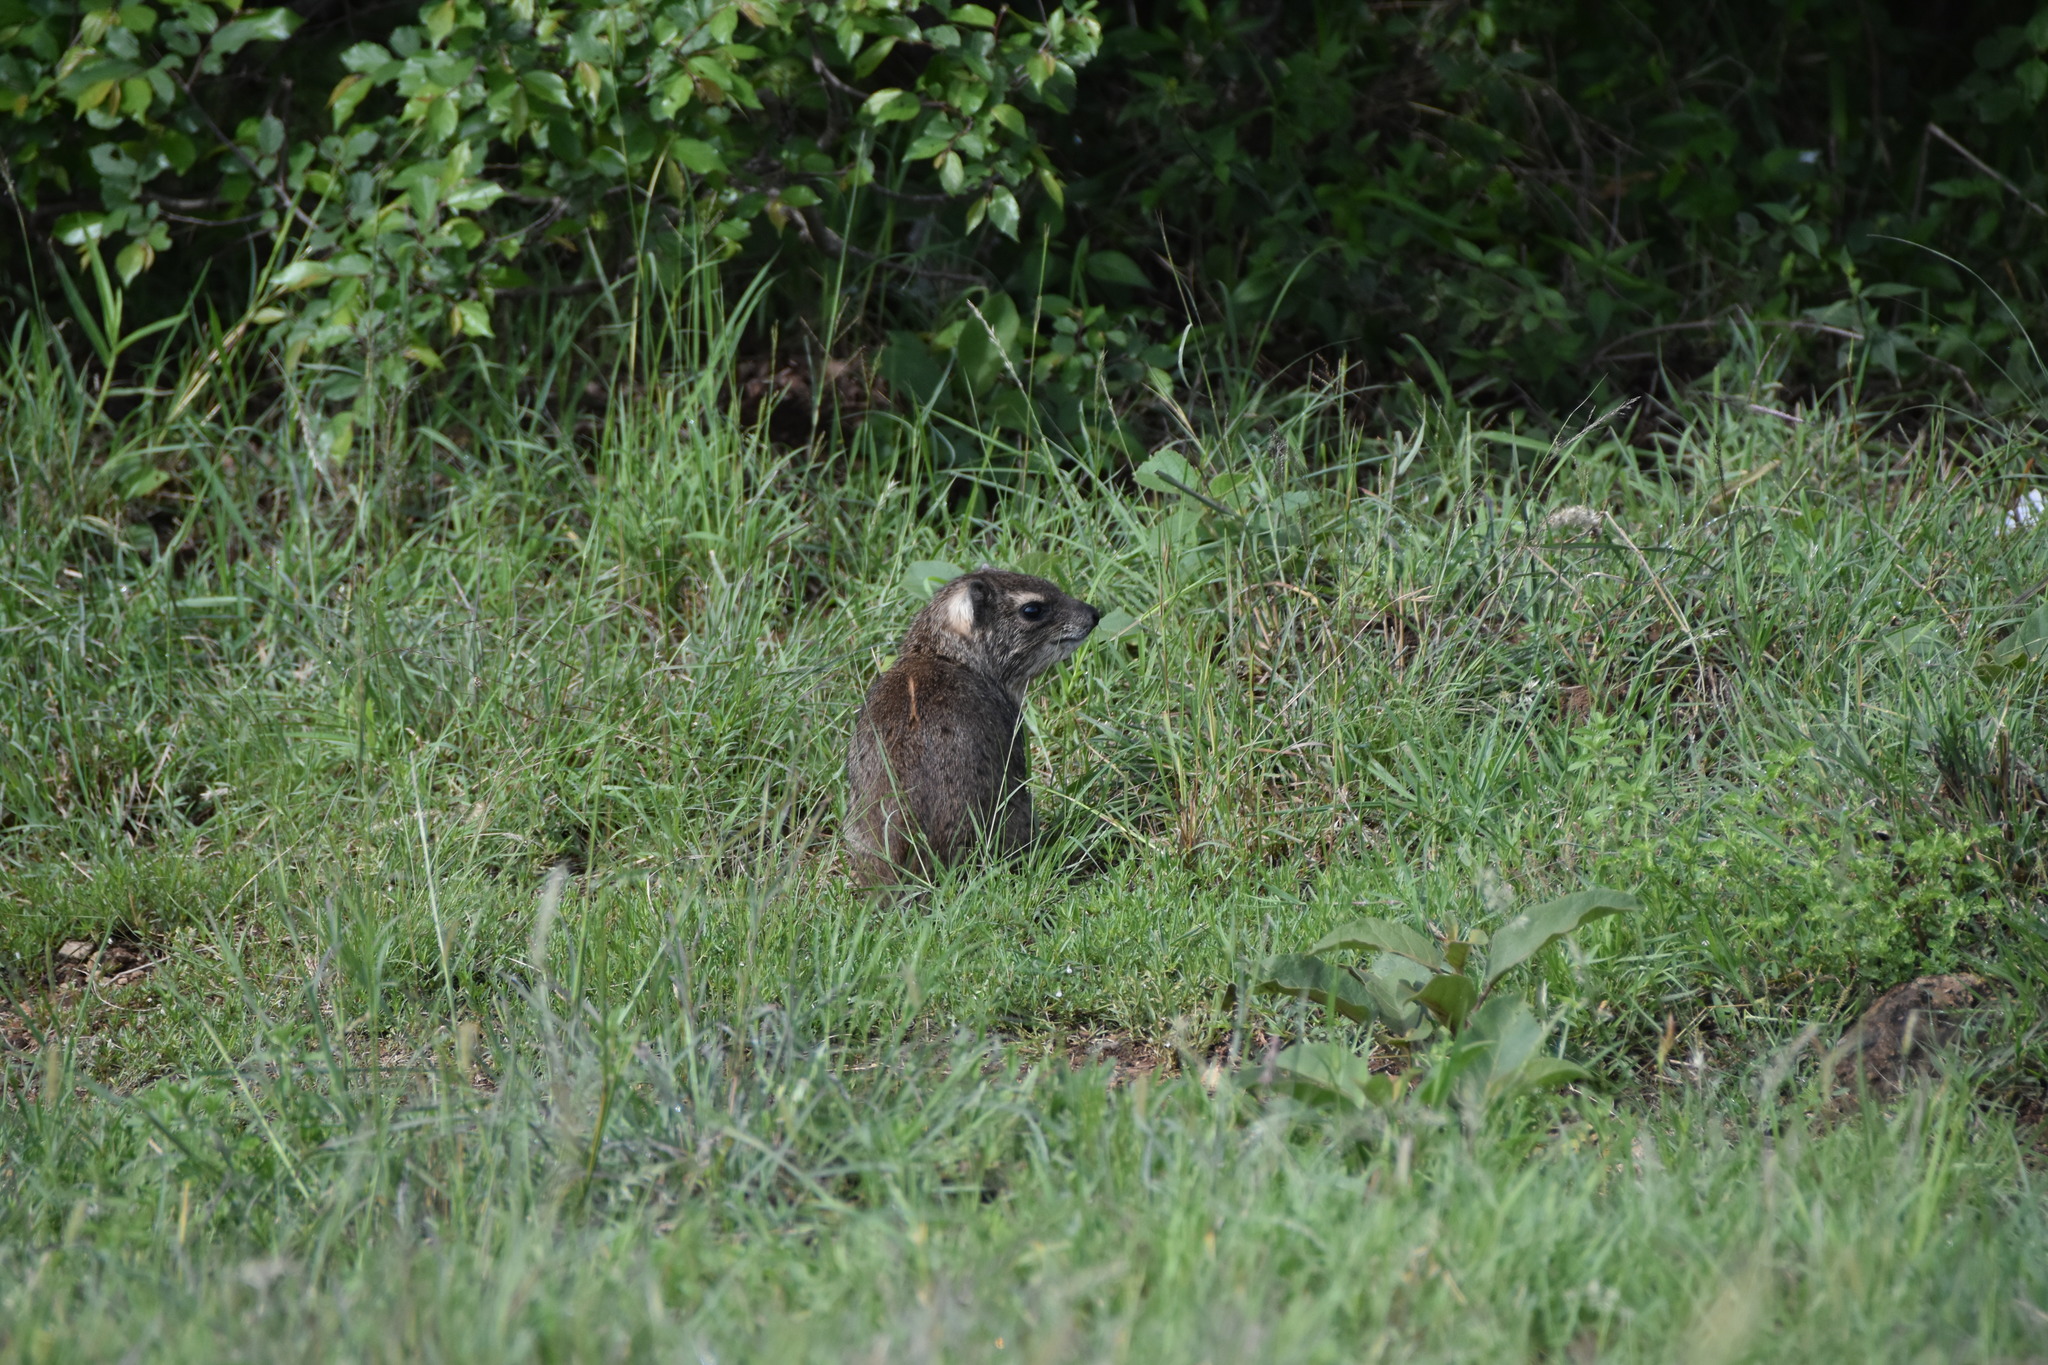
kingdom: Animalia
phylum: Chordata
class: Mammalia
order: Hyracoidea
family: Procaviidae
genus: Heterohyrax
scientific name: Heterohyrax brucei
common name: Bush hyrax
